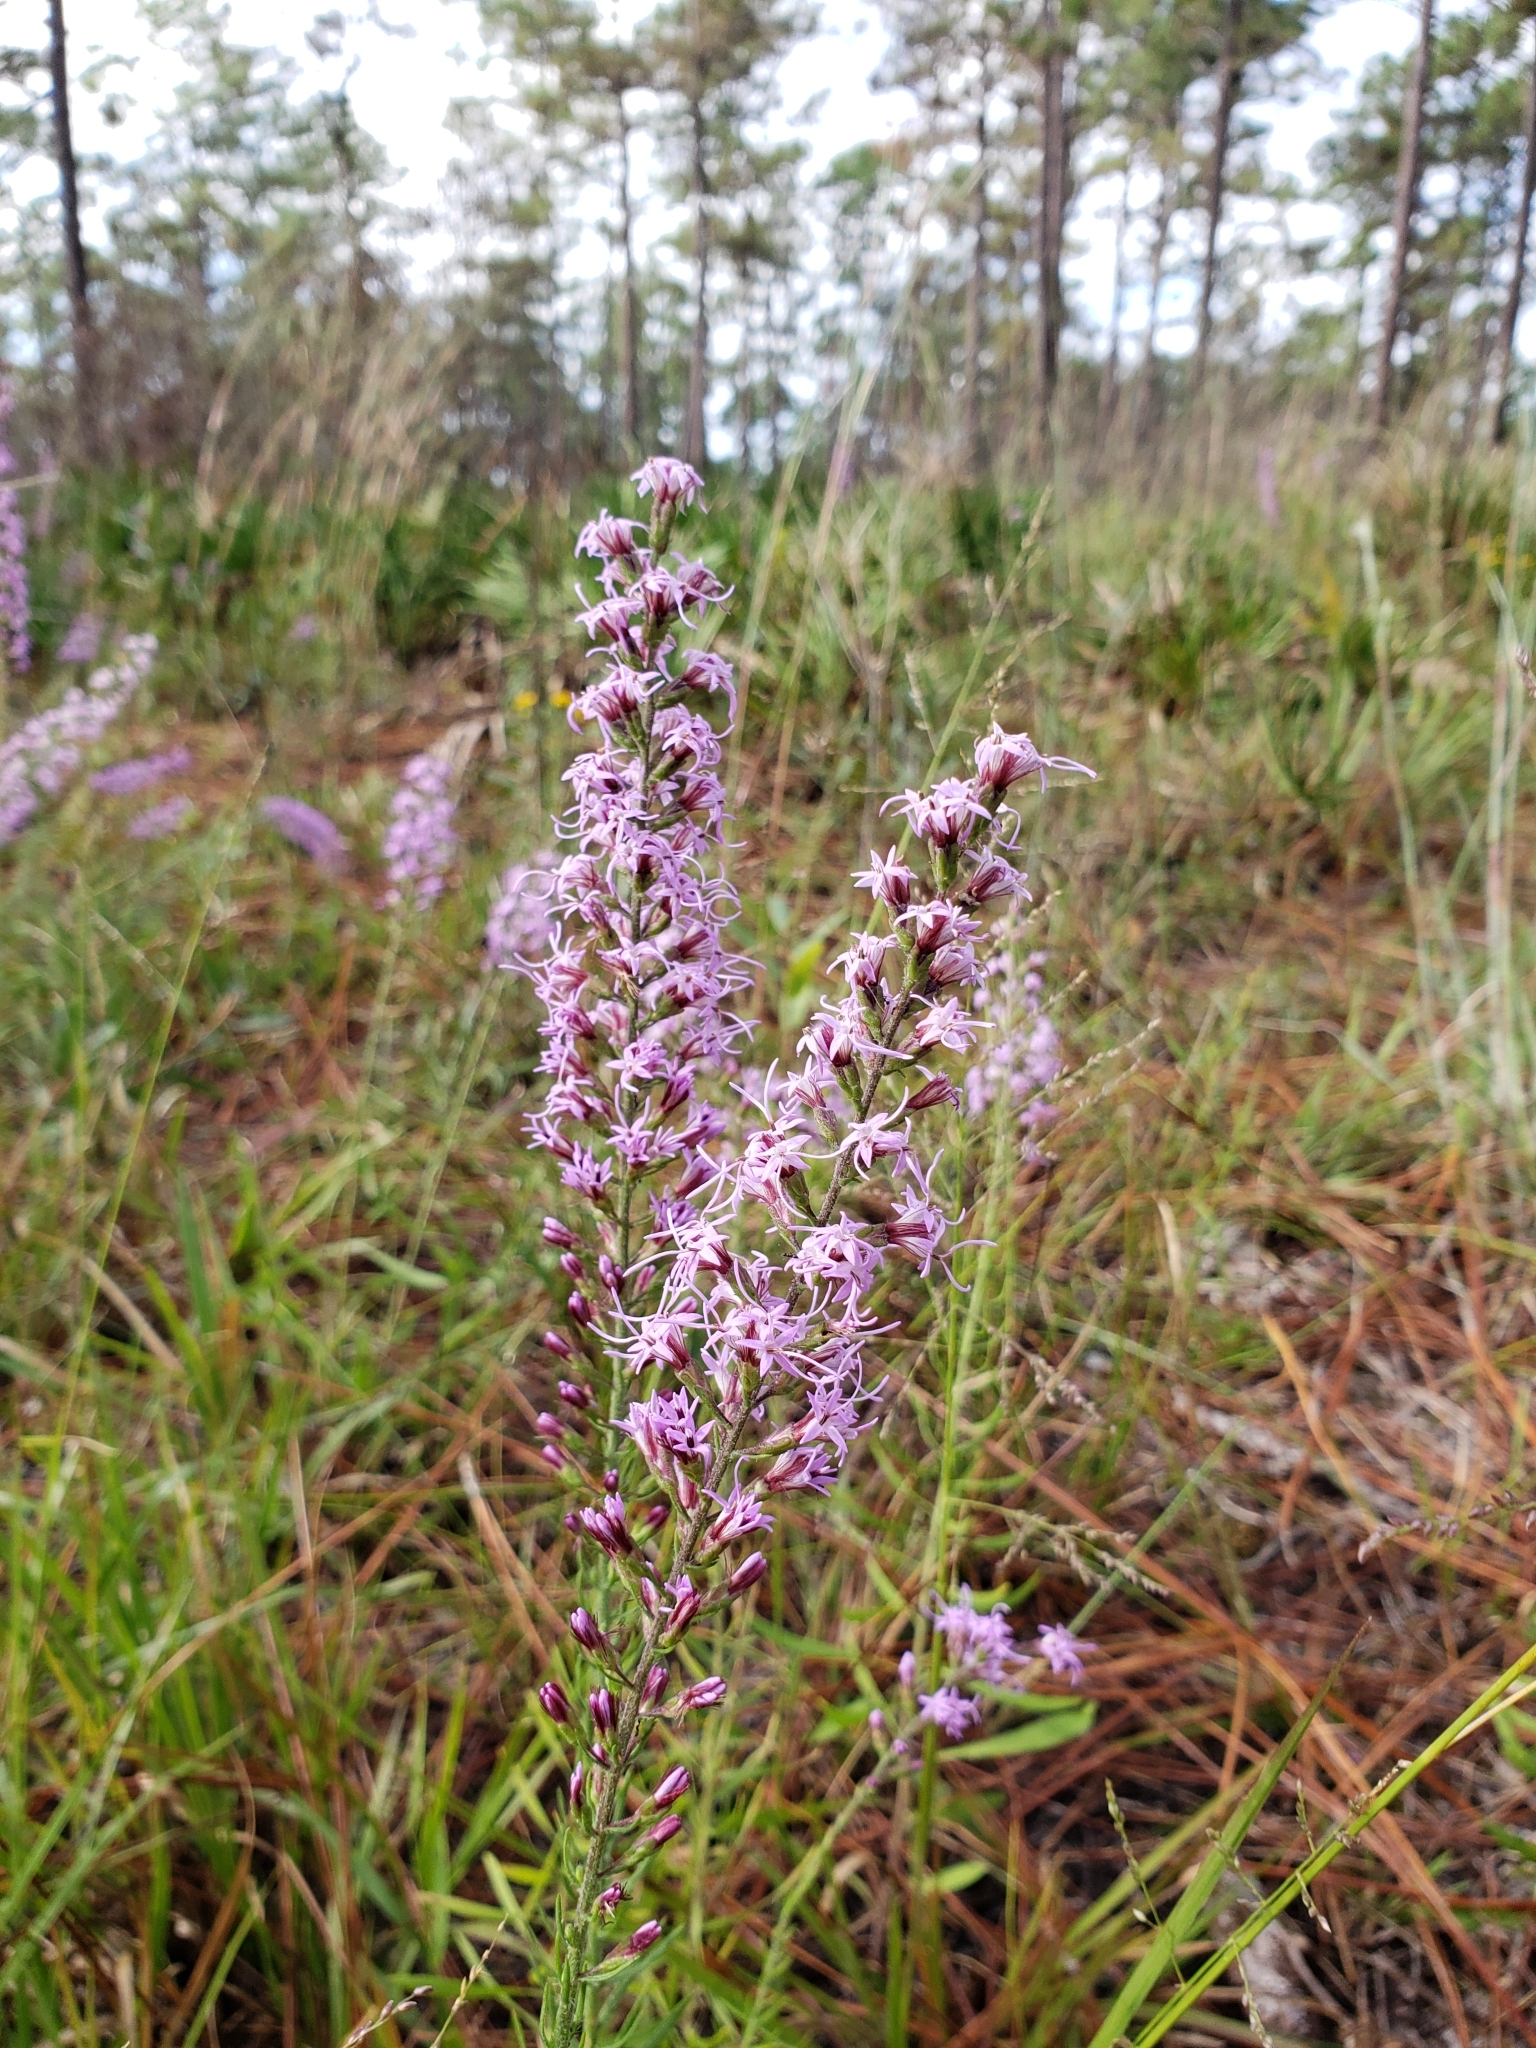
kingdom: Plantae
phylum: Tracheophyta
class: Magnoliopsida
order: Asterales
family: Asteraceae
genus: Liatris
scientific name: Liatris gracilis
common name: Slender gayfeather
